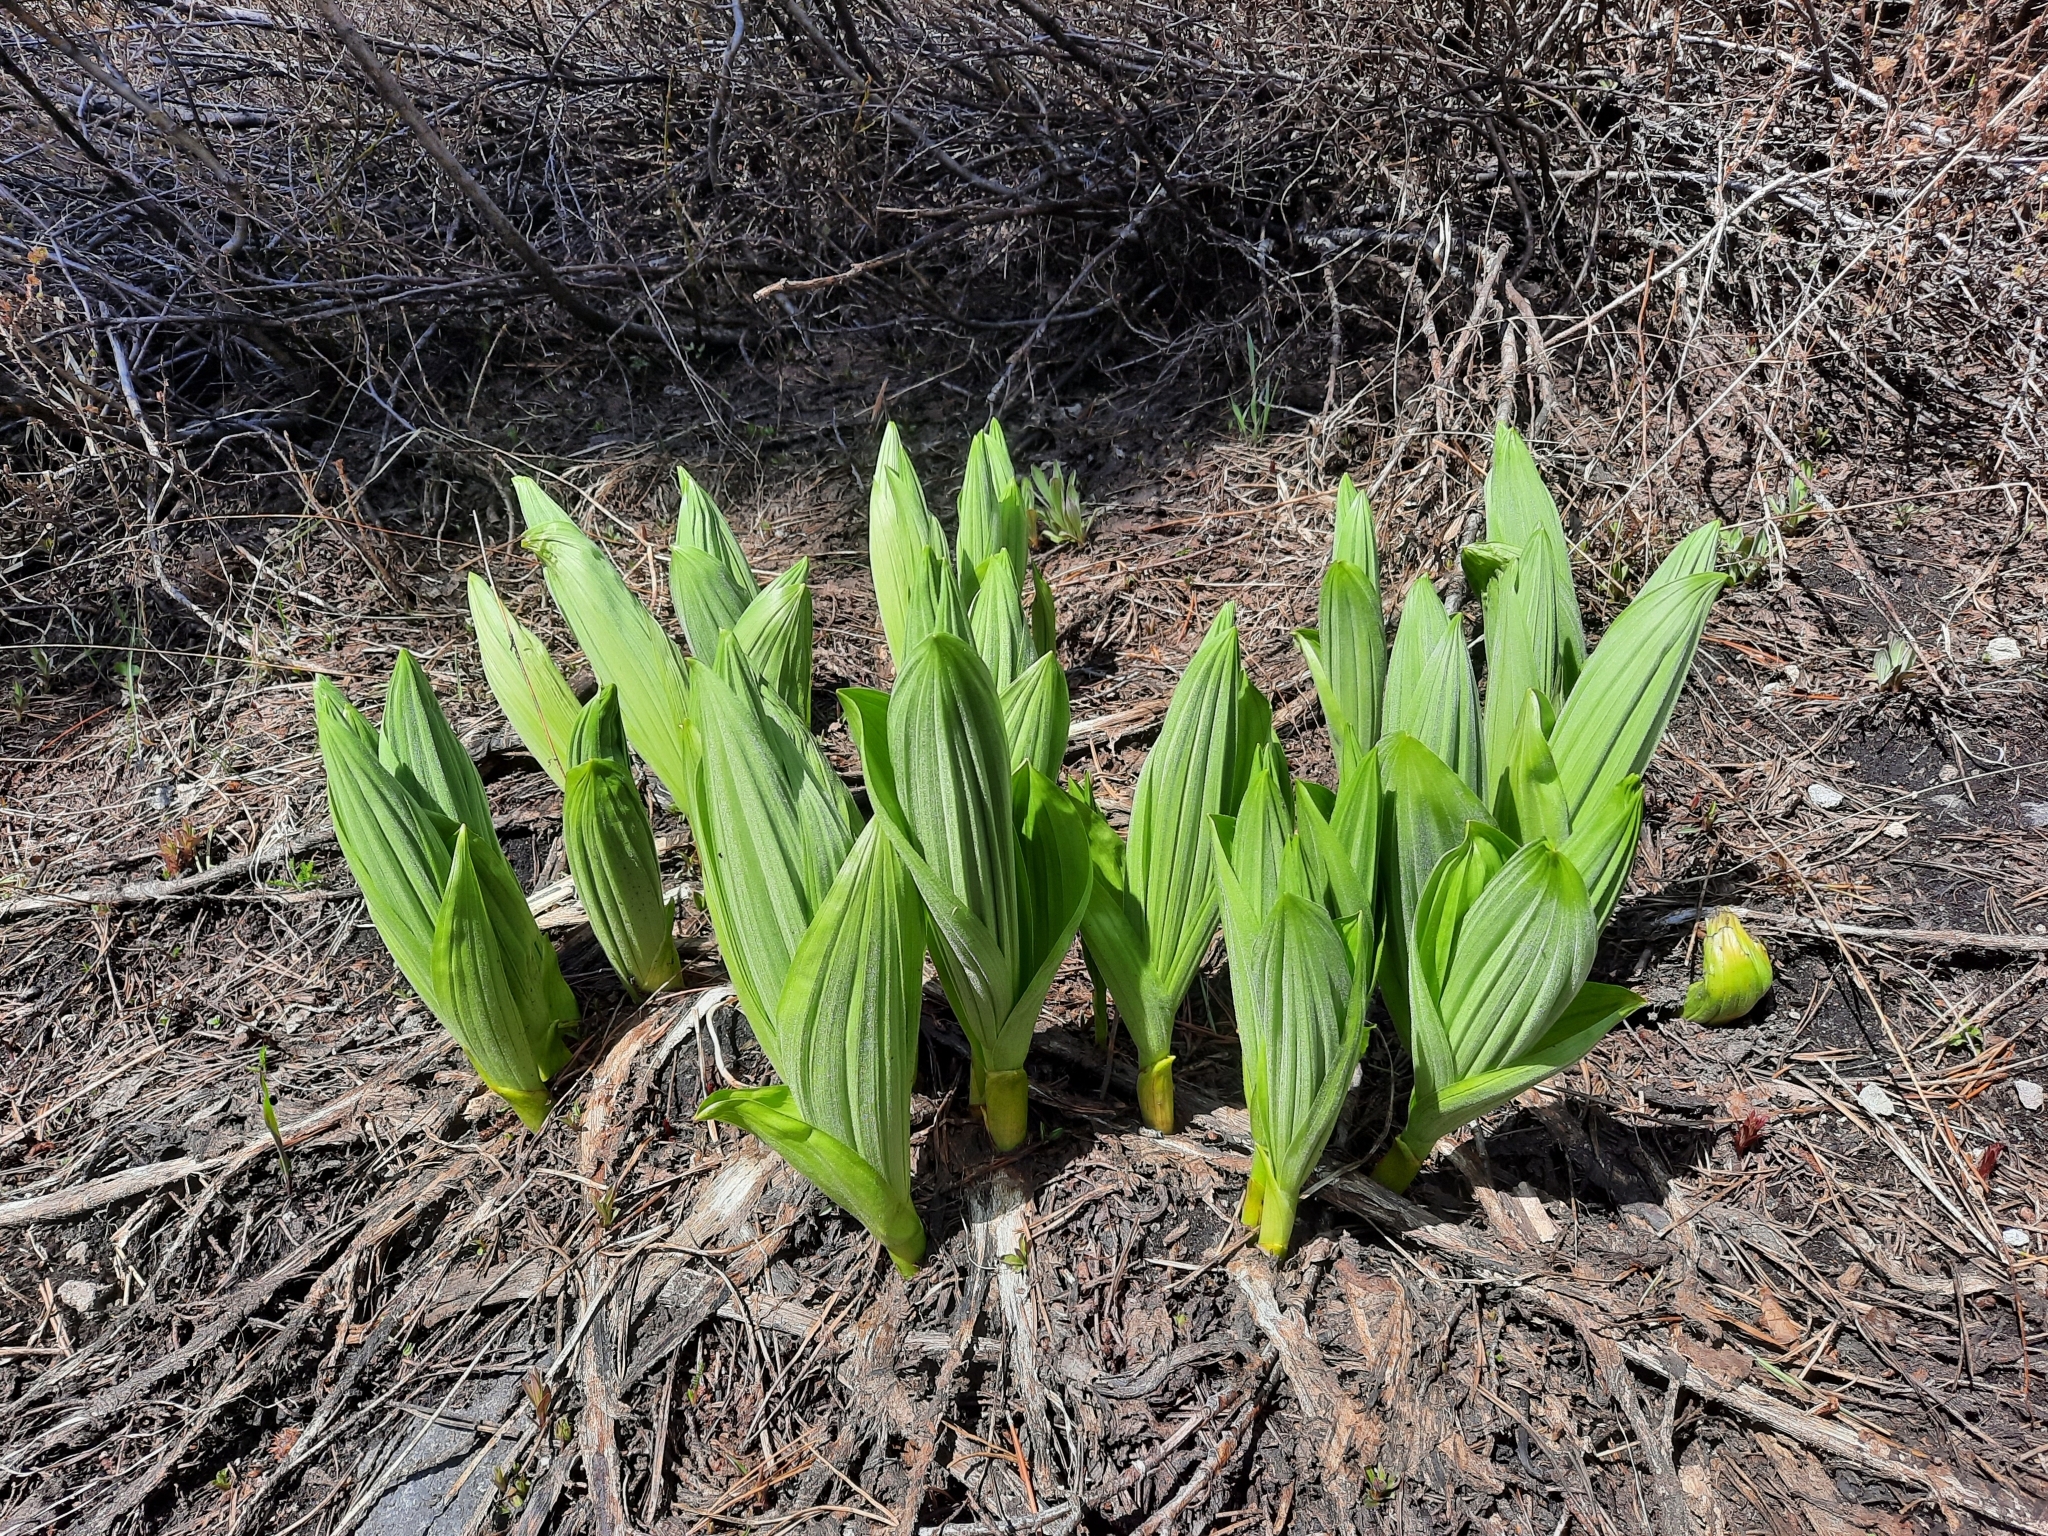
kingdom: Plantae
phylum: Tracheophyta
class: Liliopsida
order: Liliales
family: Melanthiaceae
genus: Veratrum
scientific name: Veratrum californicum
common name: California veratrum
